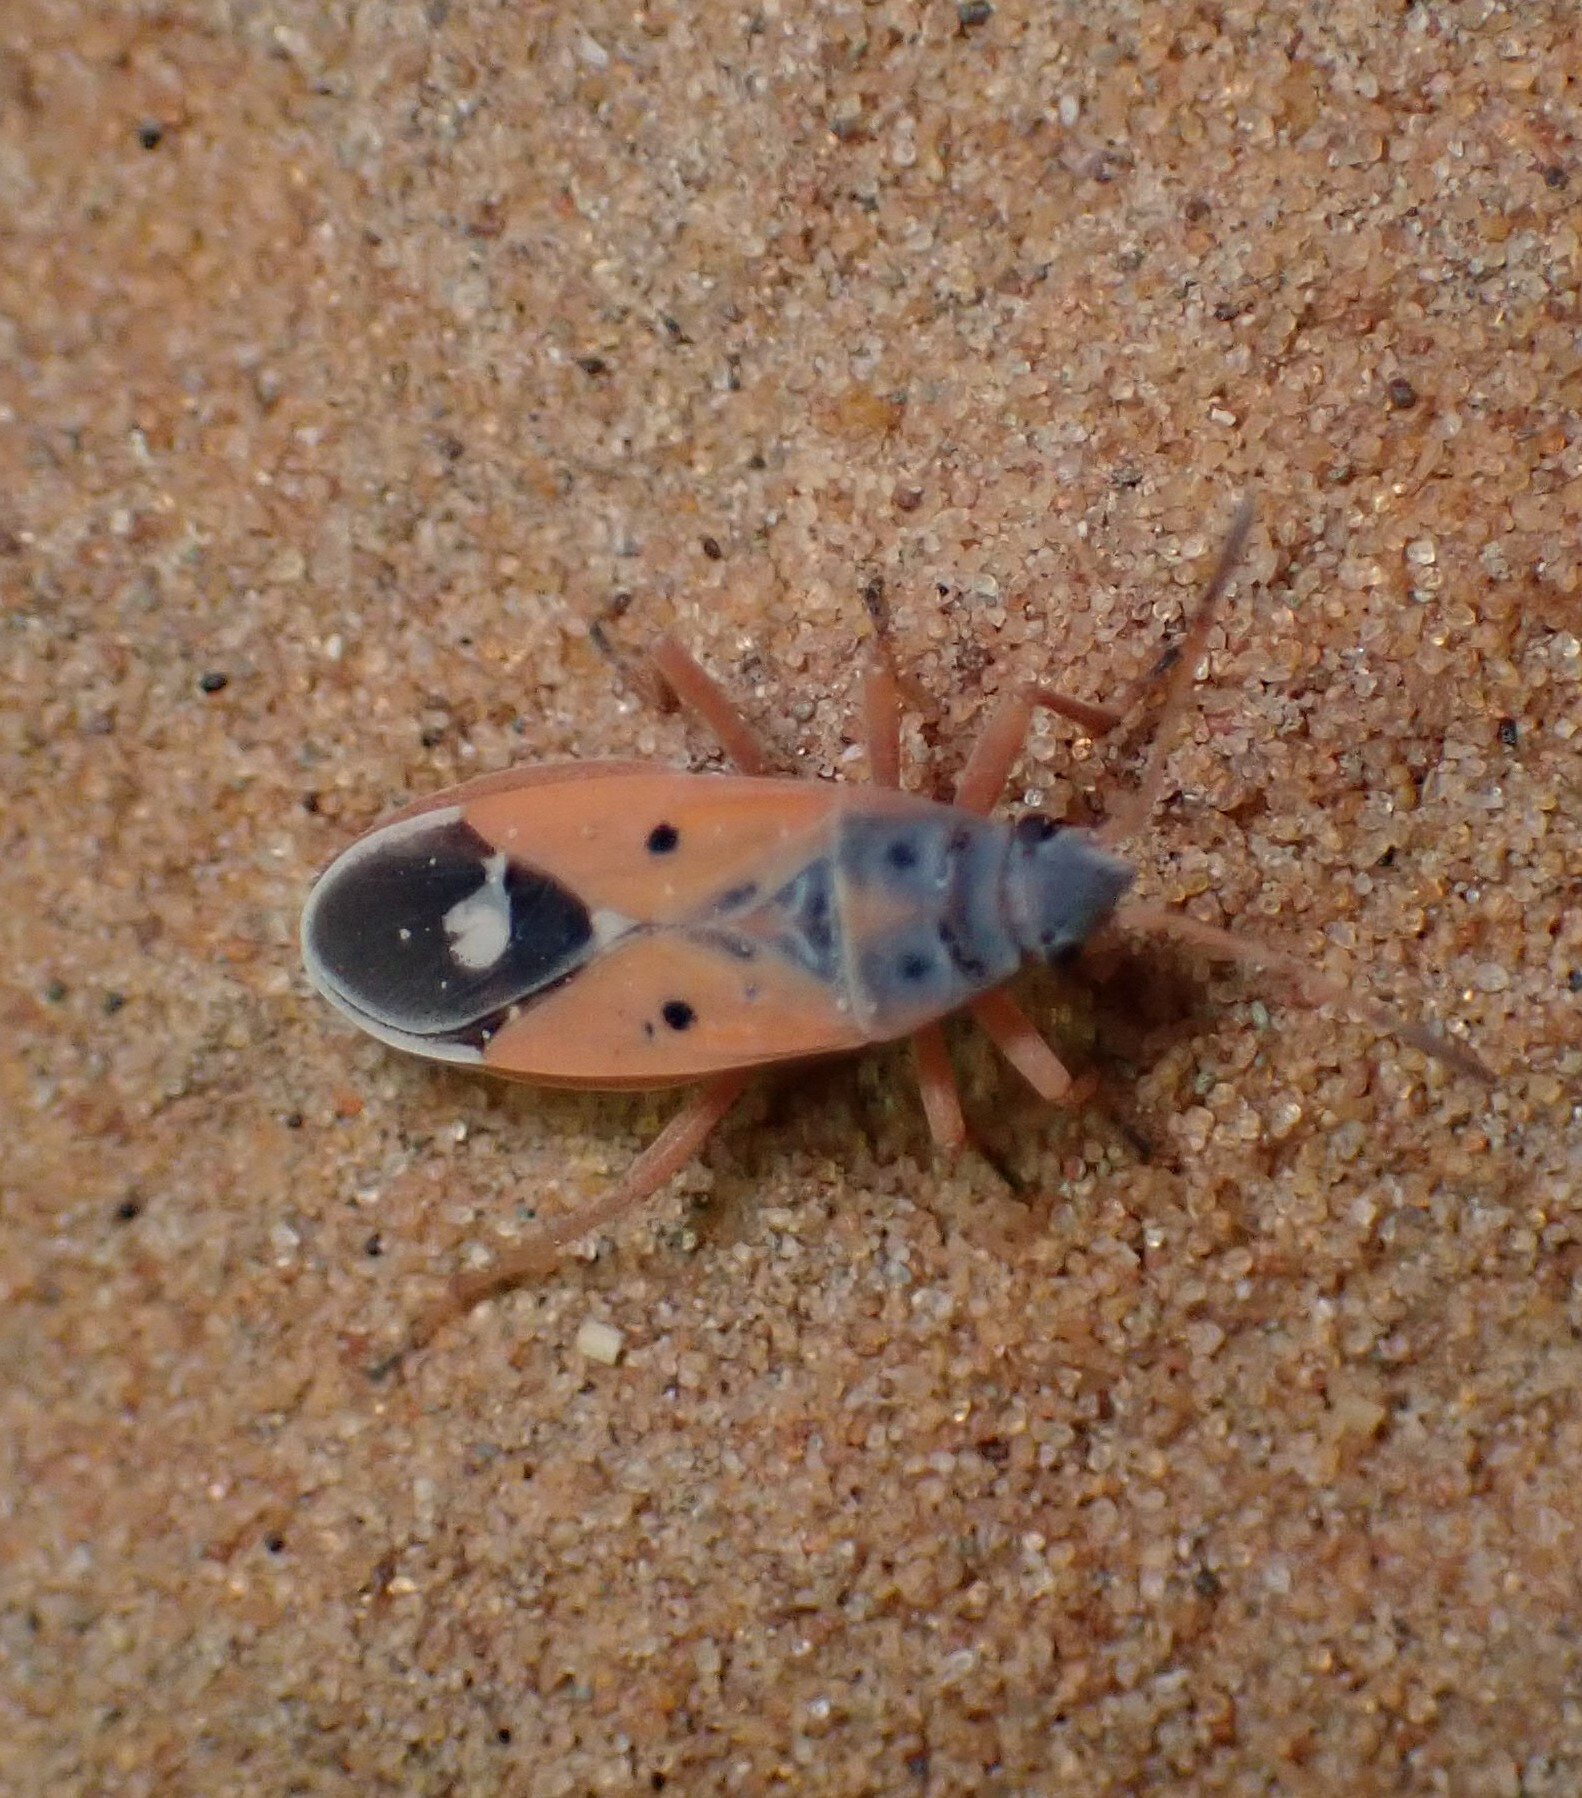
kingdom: Animalia
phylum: Arthropoda
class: Insecta
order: Hemiptera
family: Lygaeidae
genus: Cosmopleurus
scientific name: Cosmopleurus fulvipes
